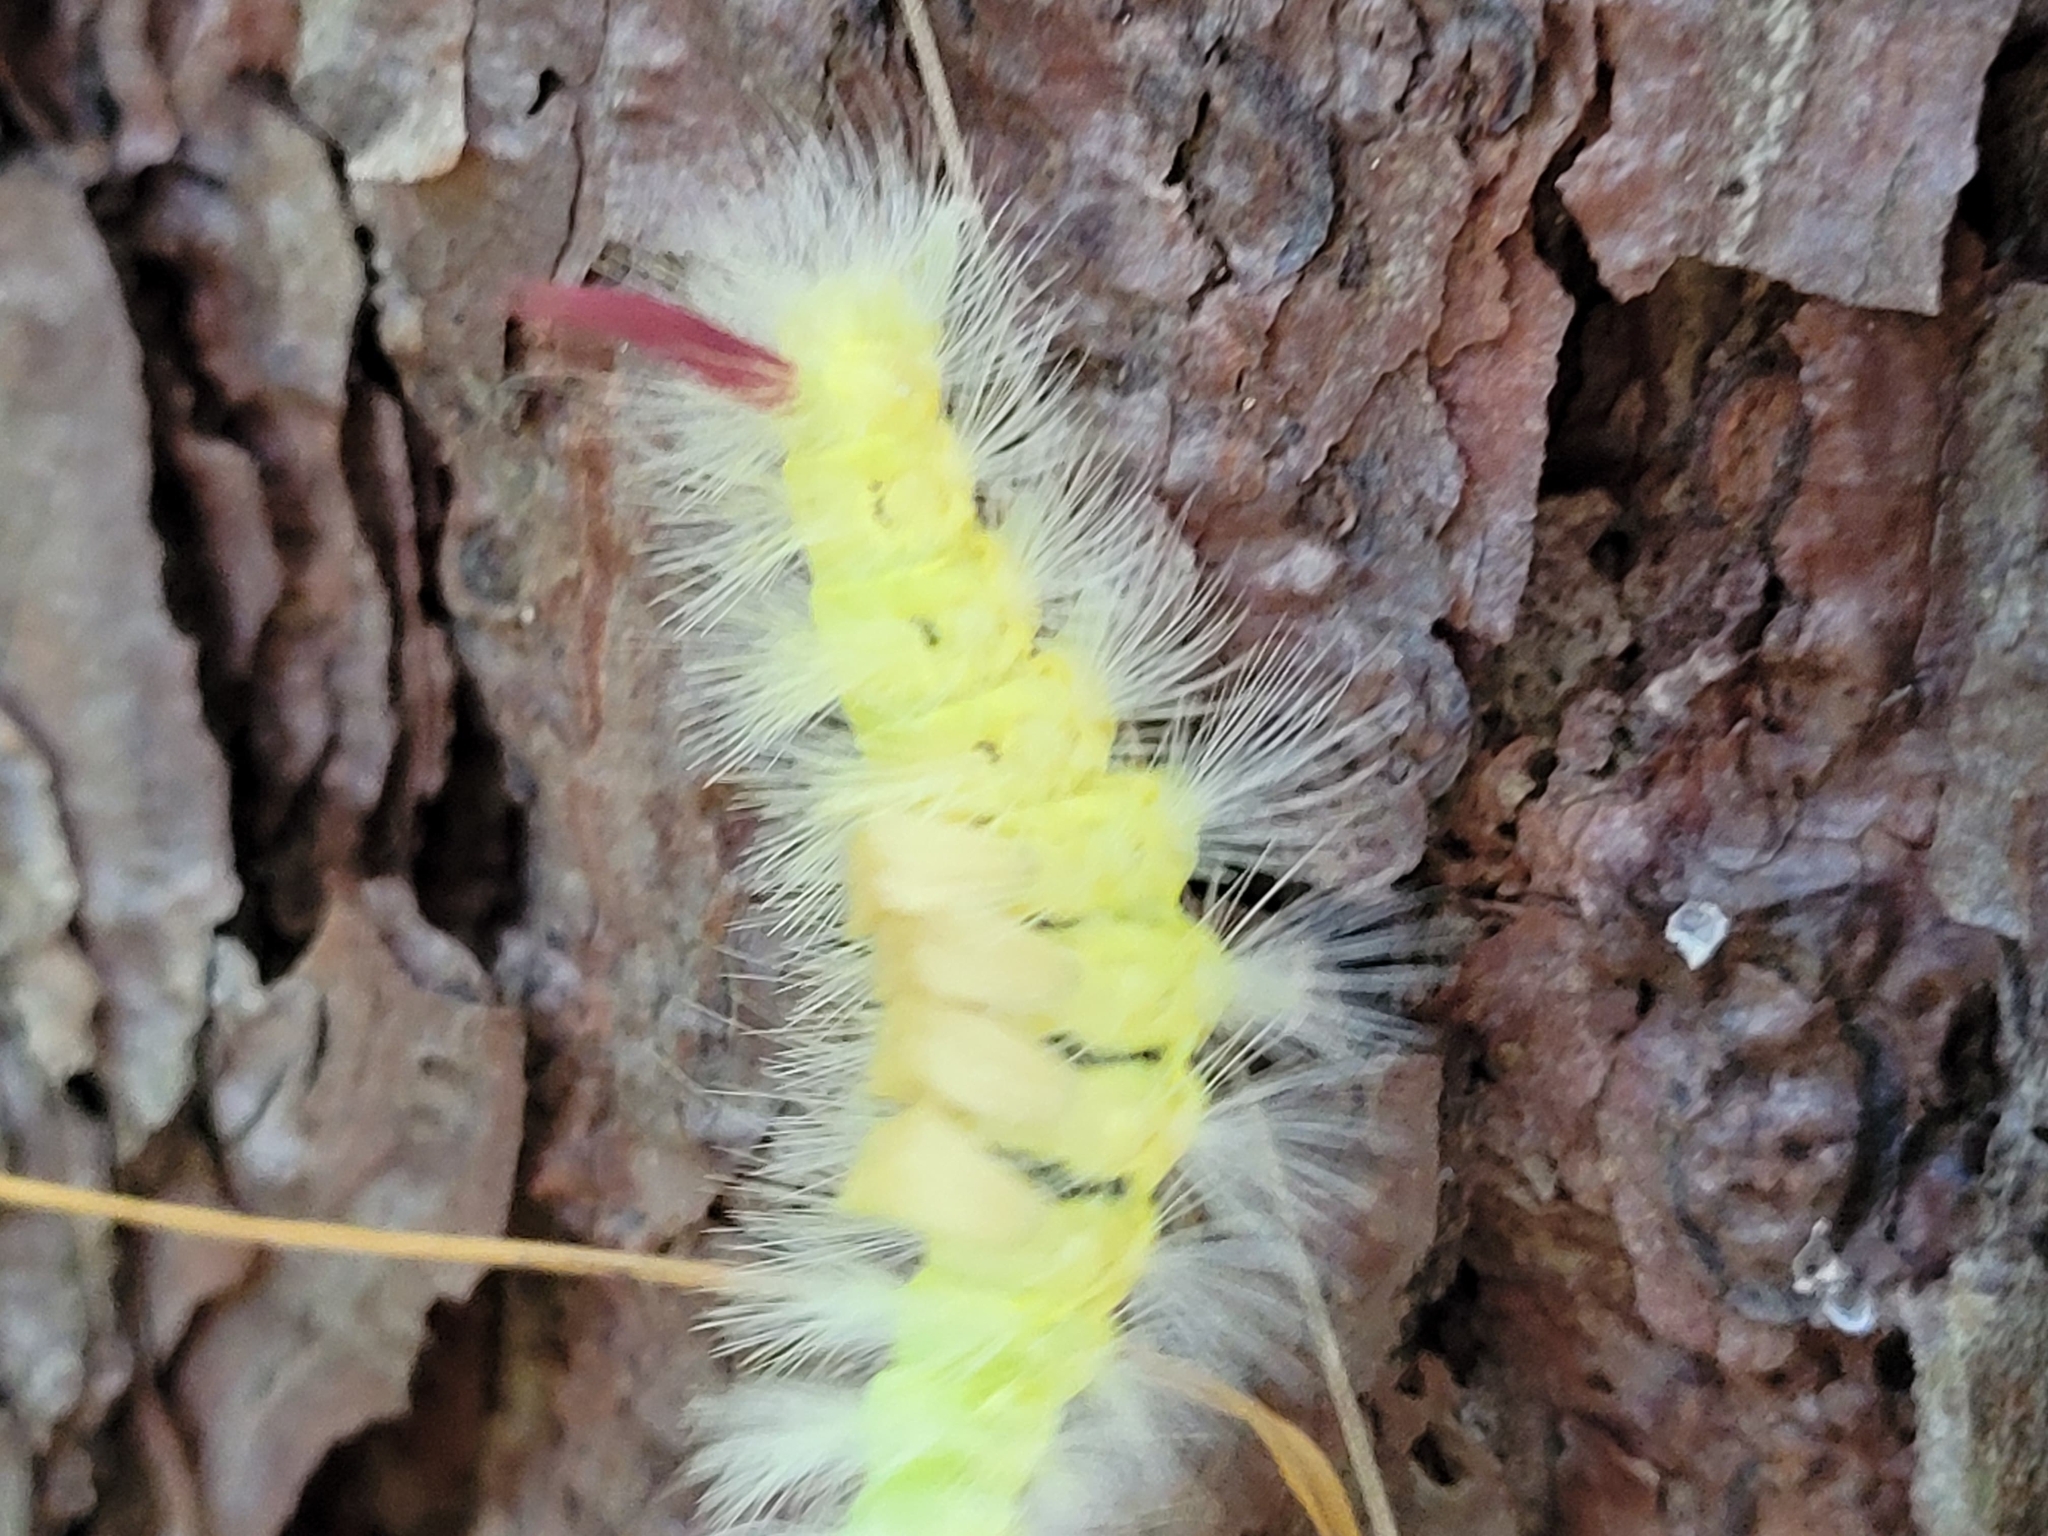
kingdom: Animalia
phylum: Arthropoda
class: Insecta
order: Lepidoptera
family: Erebidae
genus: Calliteara
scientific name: Calliteara pudibunda
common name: Pale tussock
